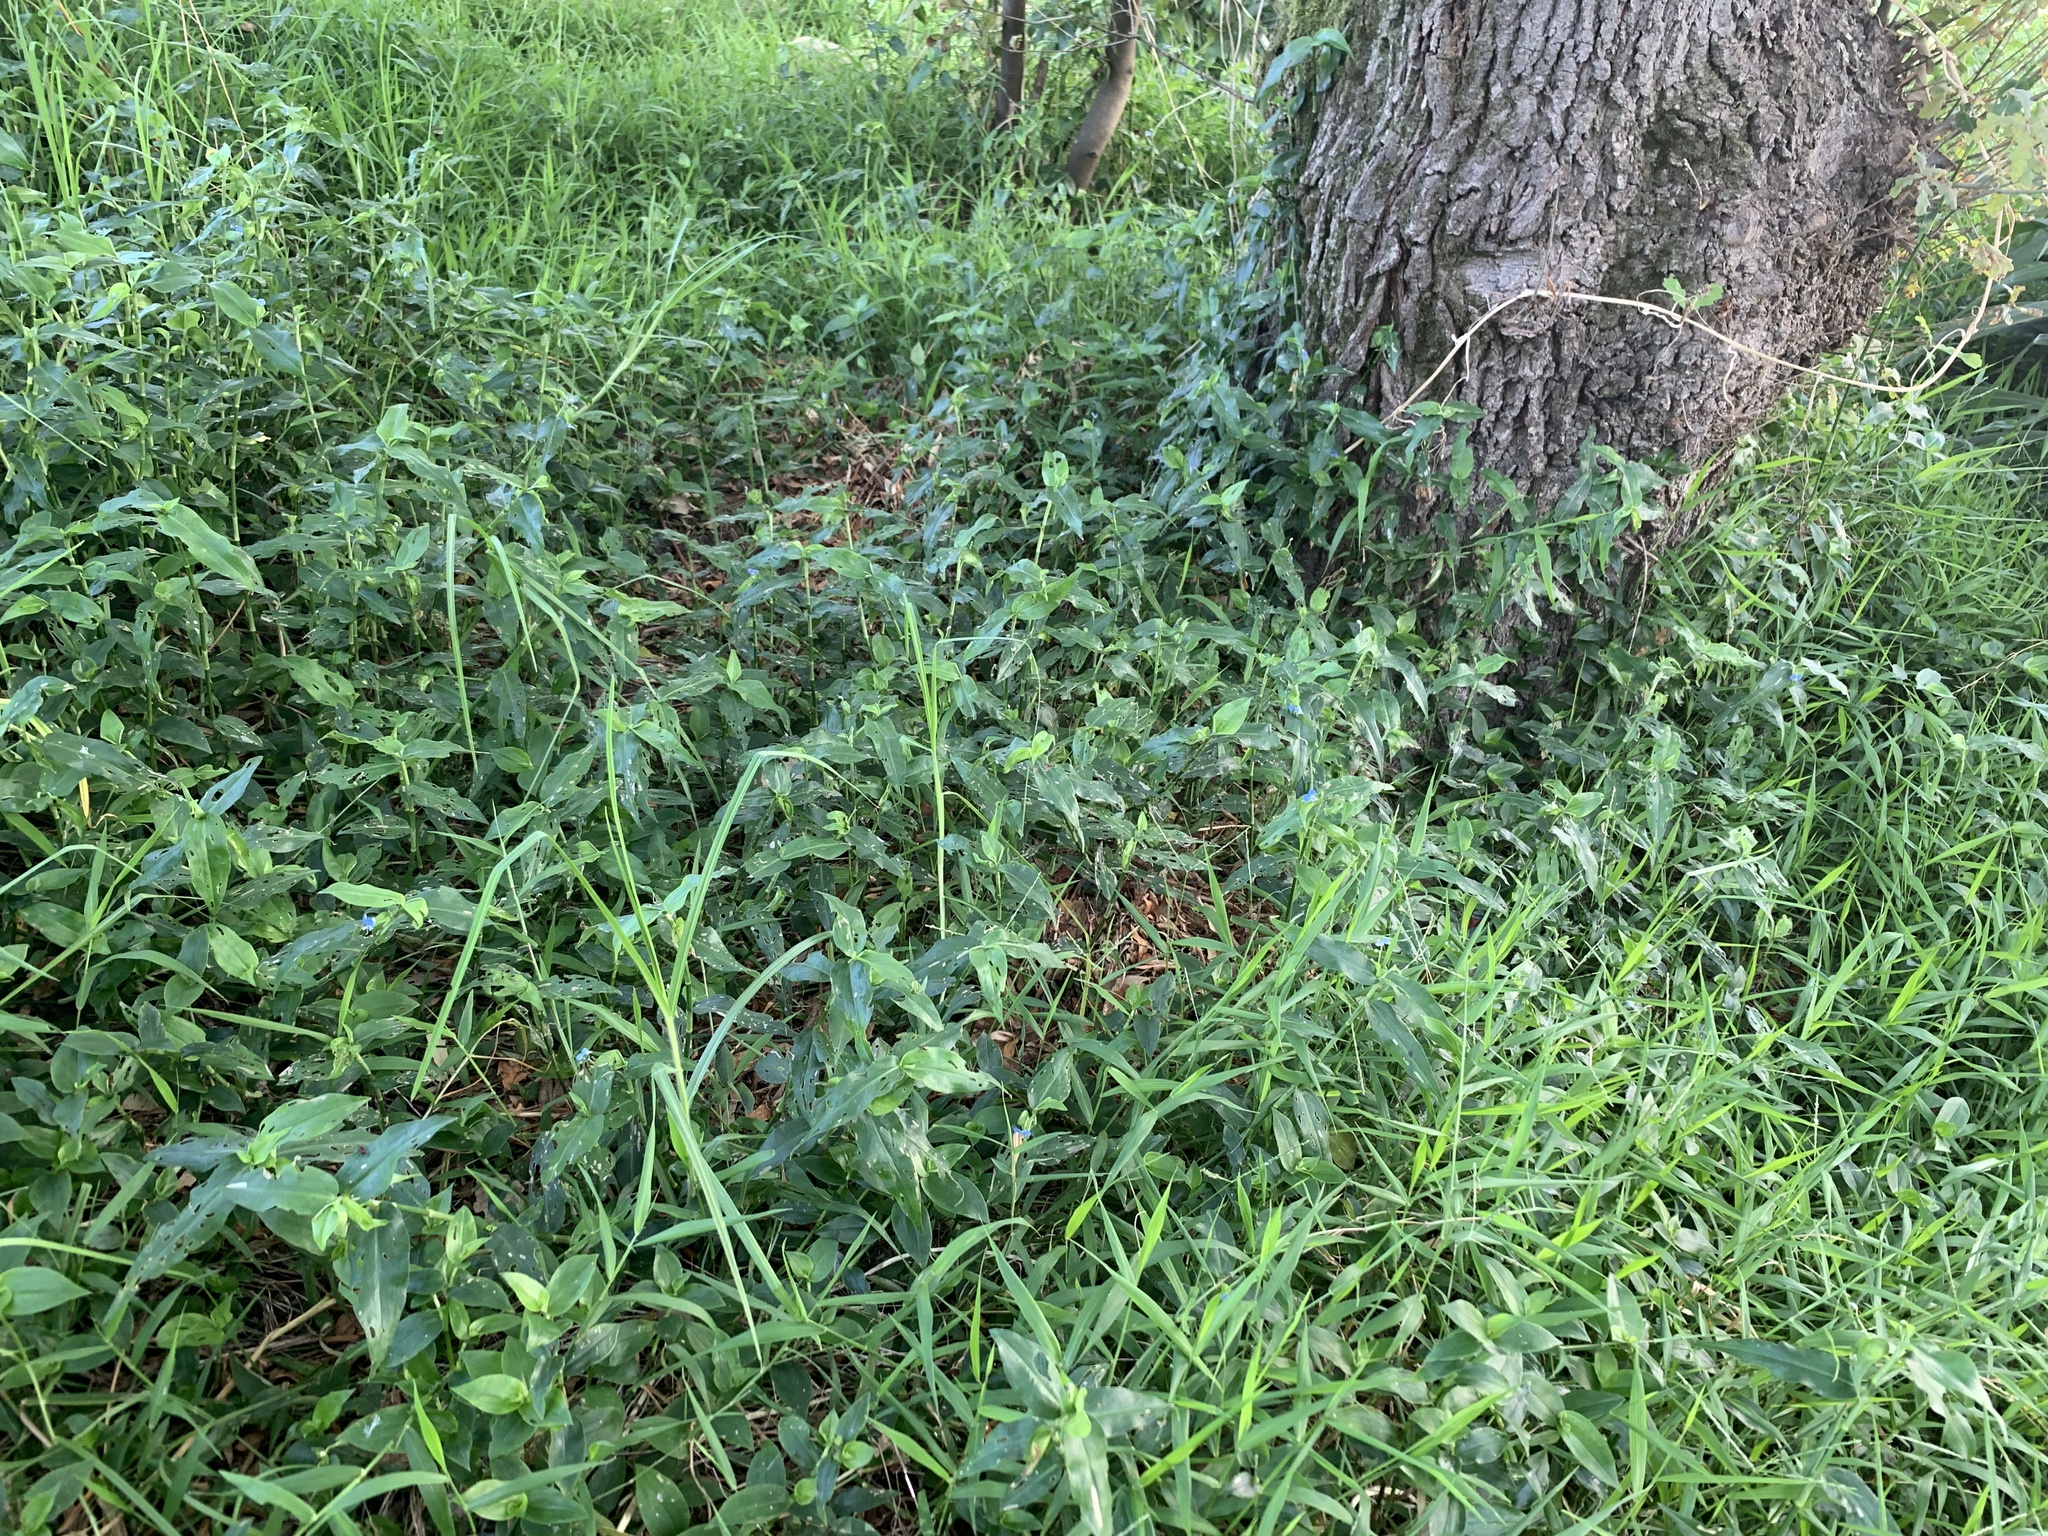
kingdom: Plantae
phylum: Tracheophyta
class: Liliopsida
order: Commelinales
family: Commelinaceae
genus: Commelina
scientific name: Commelina diffusa
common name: Climbing dayflower
